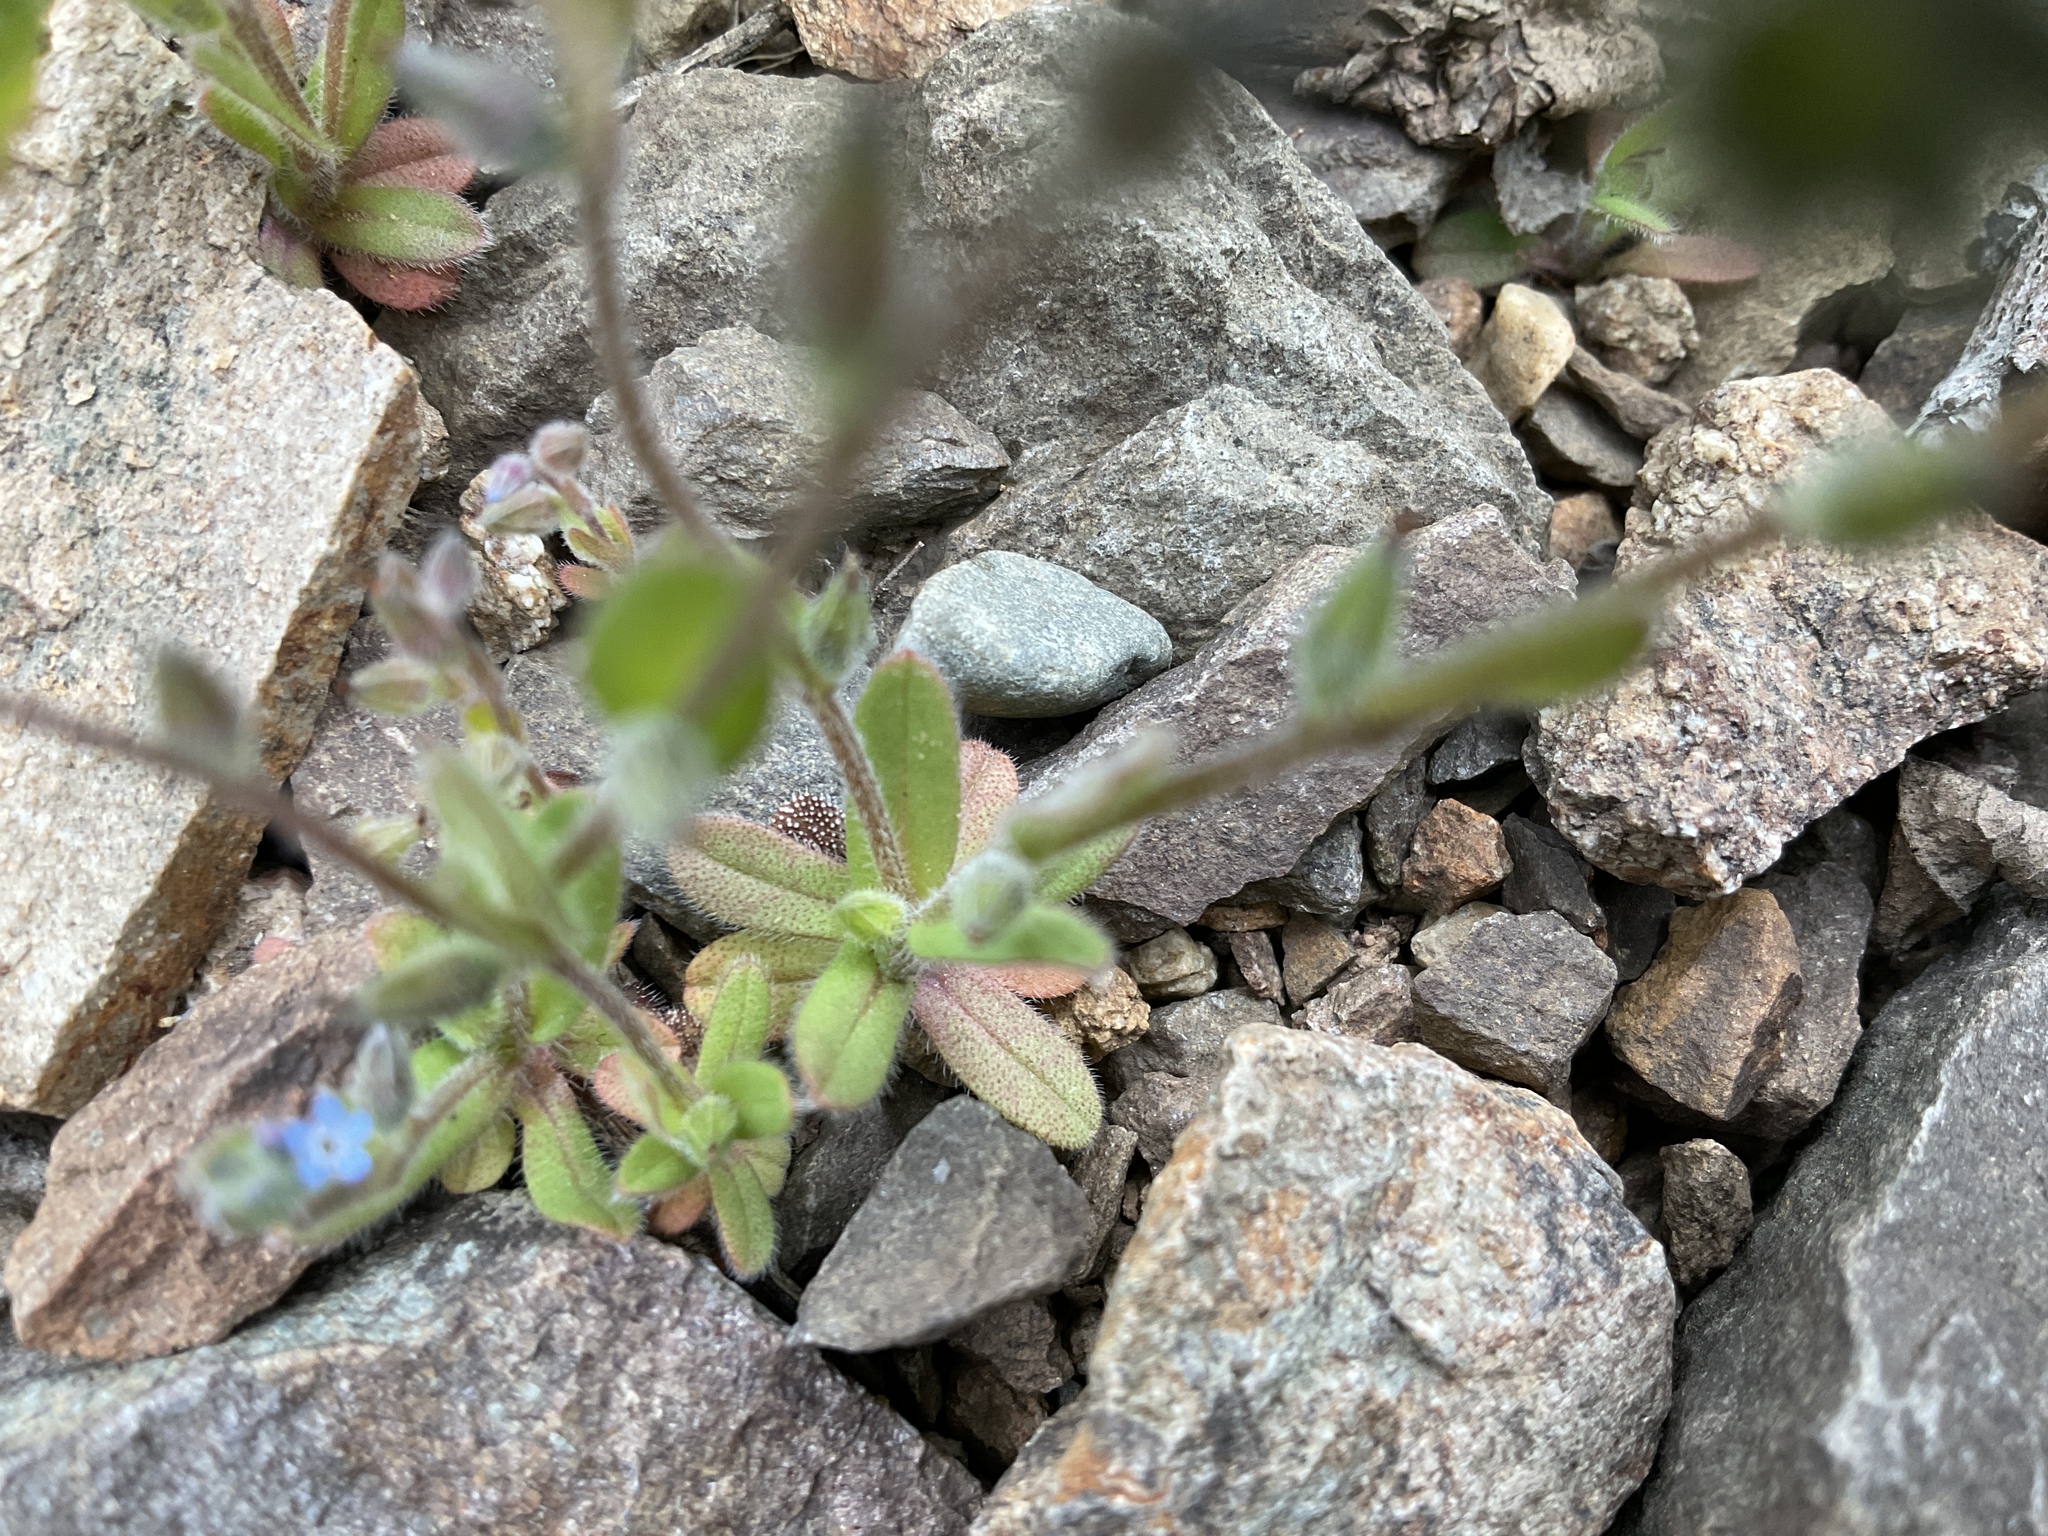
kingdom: Plantae
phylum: Tracheophyta
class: Magnoliopsida
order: Boraginales
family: Boraginaceae
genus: Myosotis
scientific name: Myosotis stricta
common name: Strict forget-me-not
